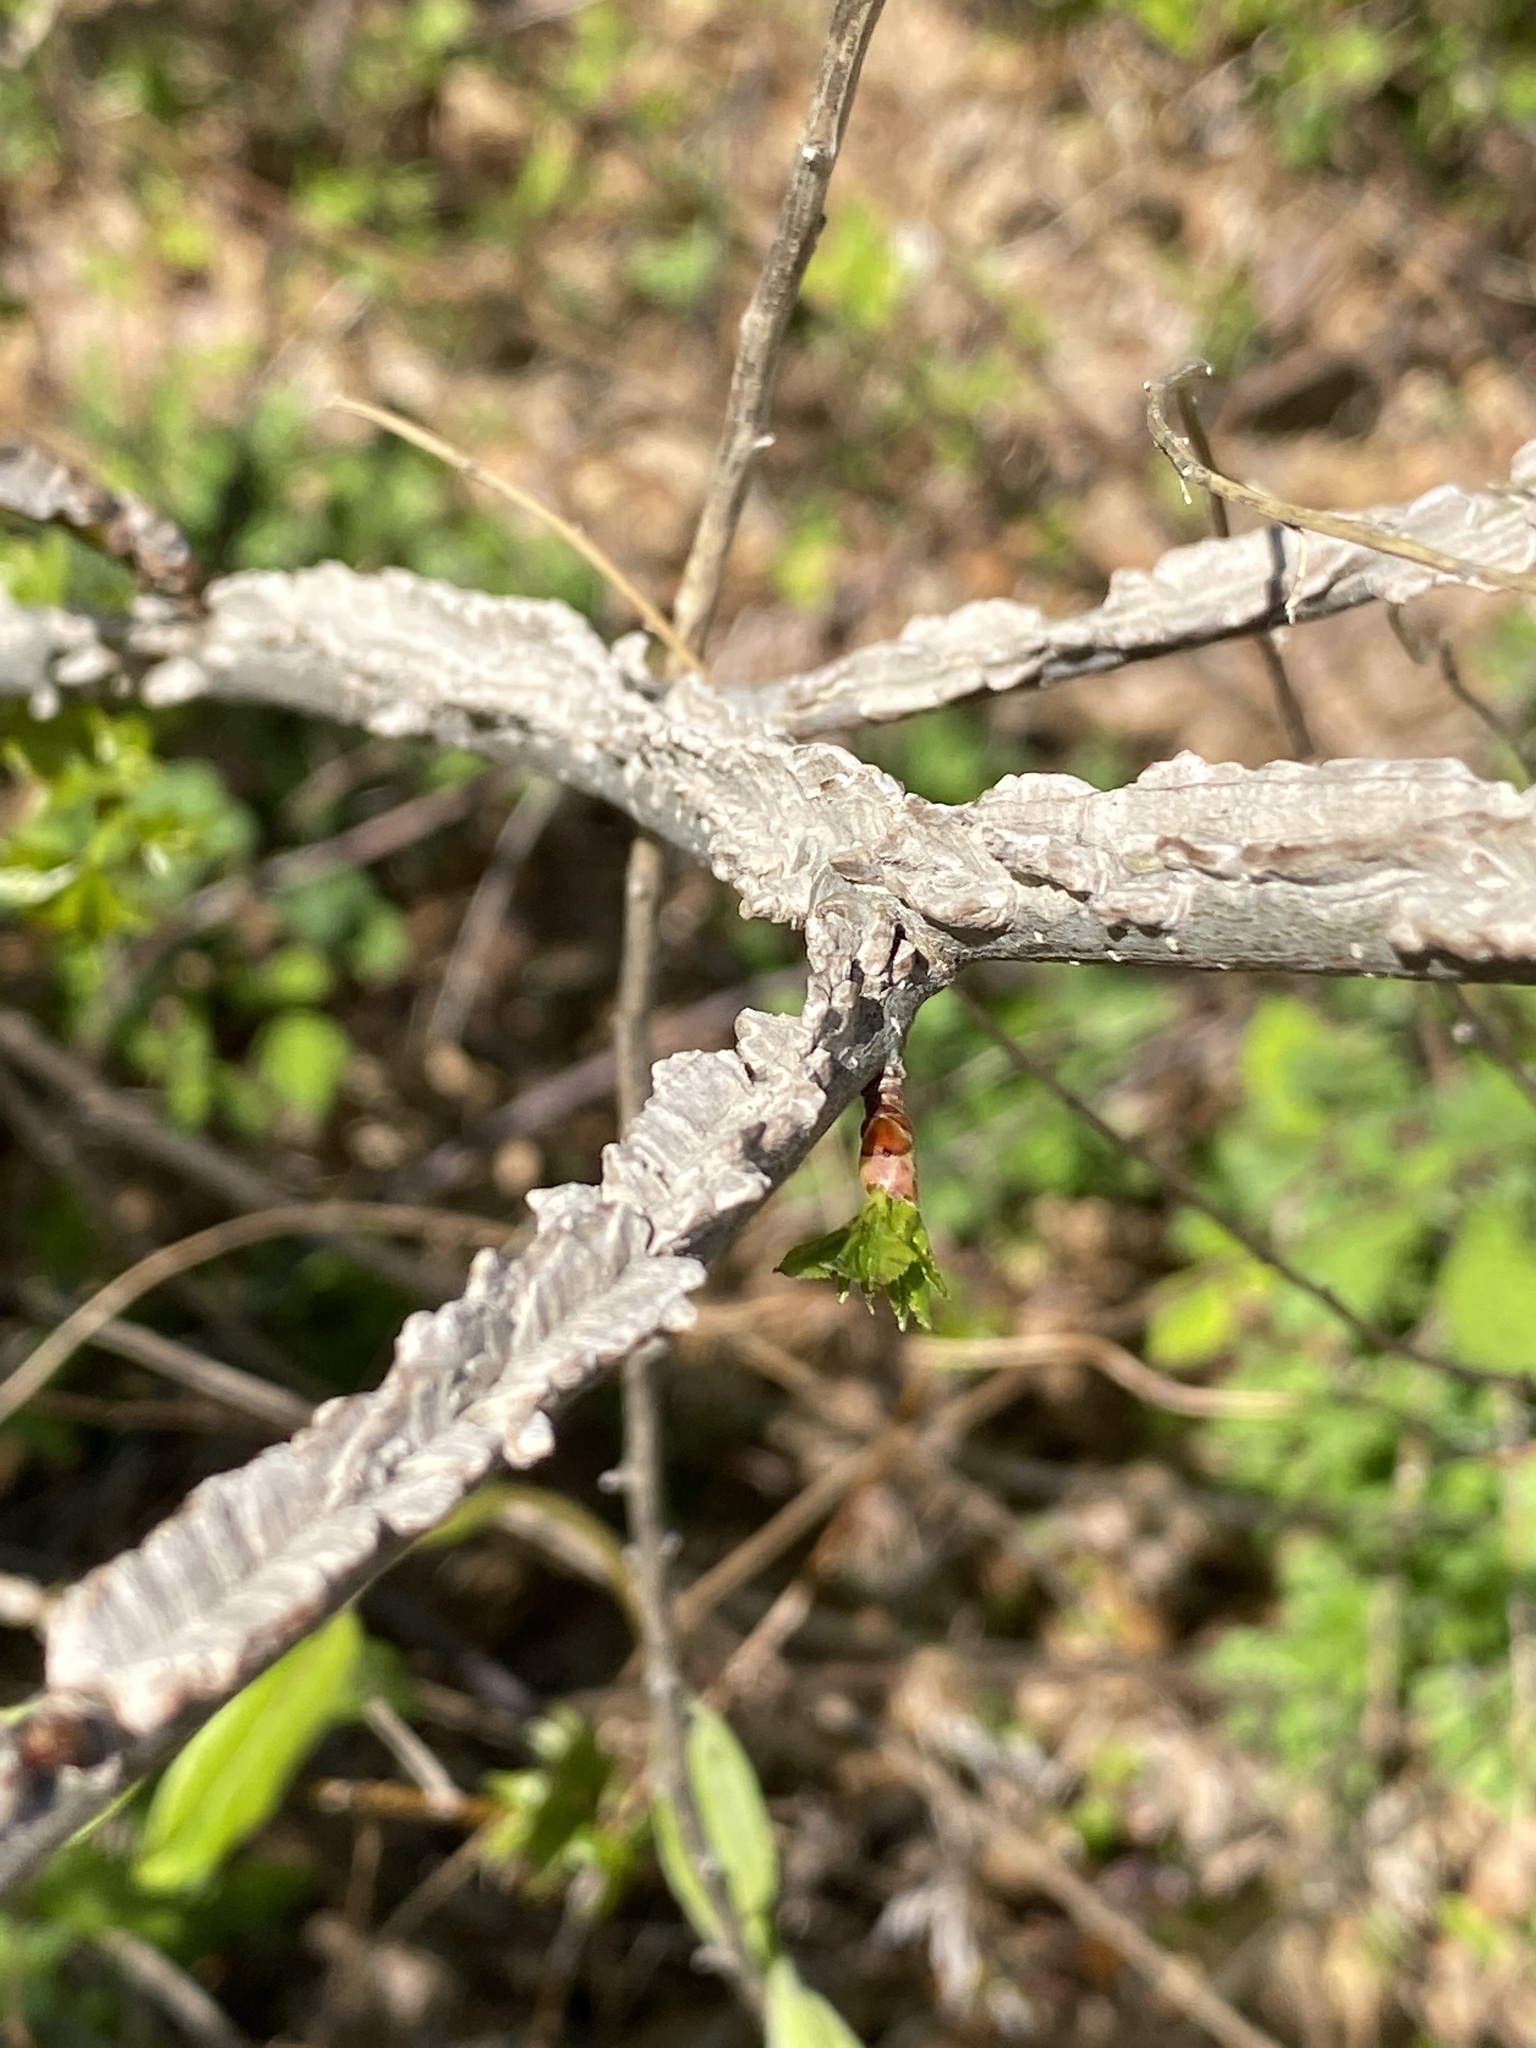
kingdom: Plantae
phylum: Tracheophyta
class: Magnoliopsida
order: Saxifragales
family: Altingiaceae
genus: Liquidambar
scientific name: Liquidambar styraciflua
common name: Sweet gum
